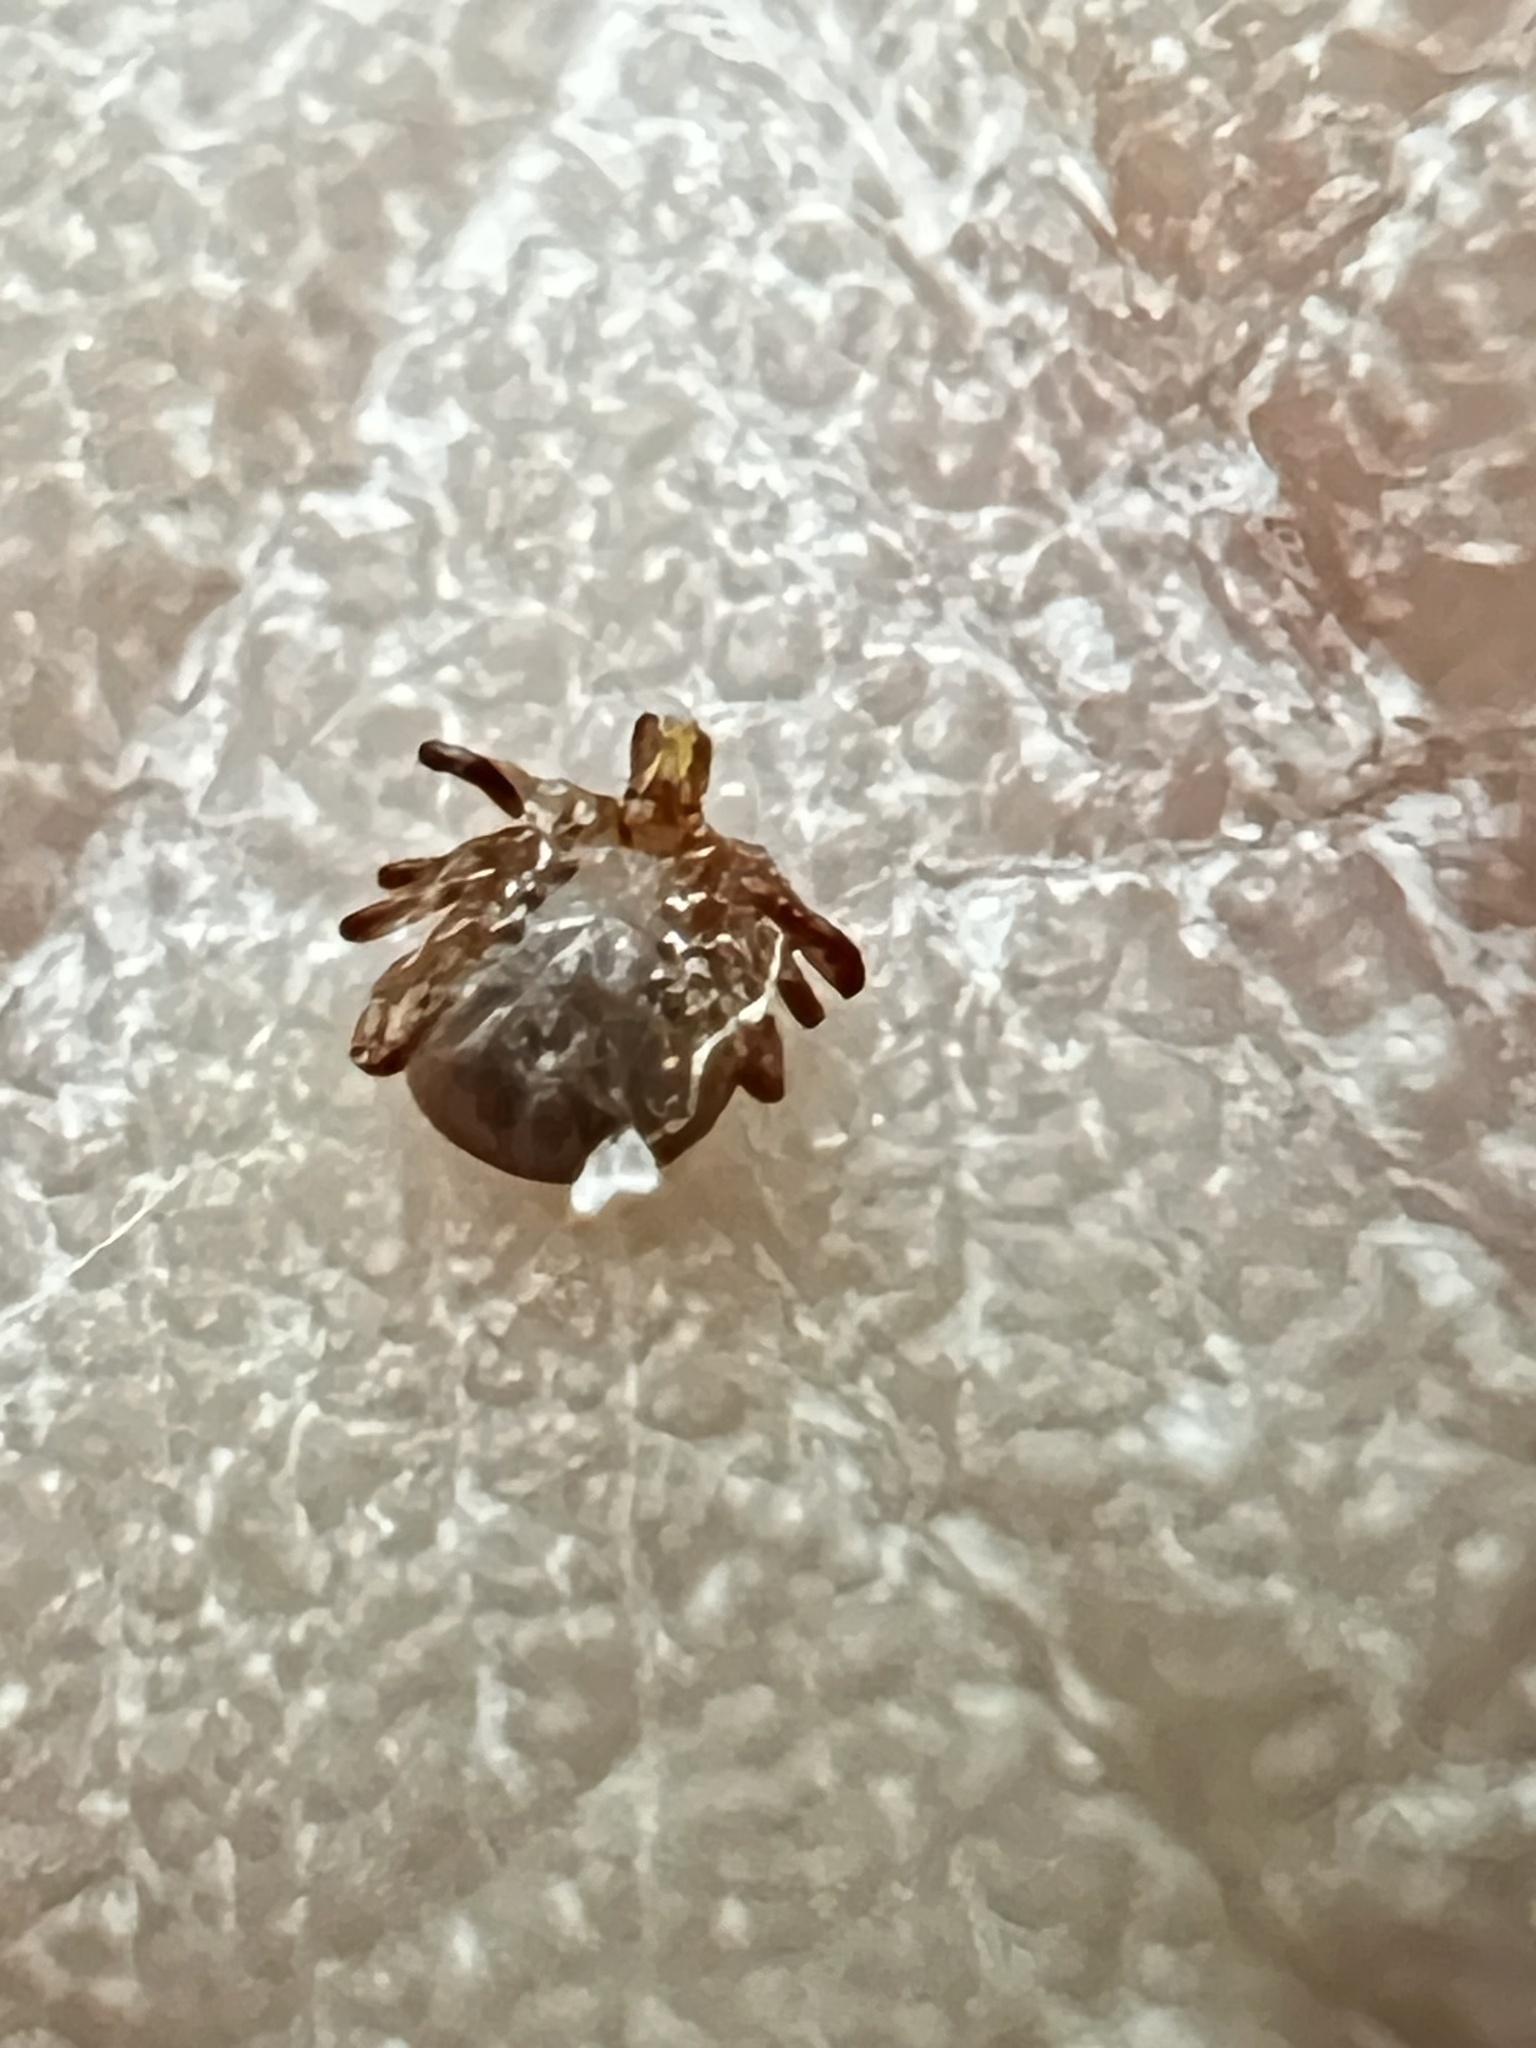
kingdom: Animalia
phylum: Arthropoda
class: Arachnida
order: Ixodida
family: Ixodidae
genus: Amblyomma
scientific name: Amblyomma americanum
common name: Lone star tick
